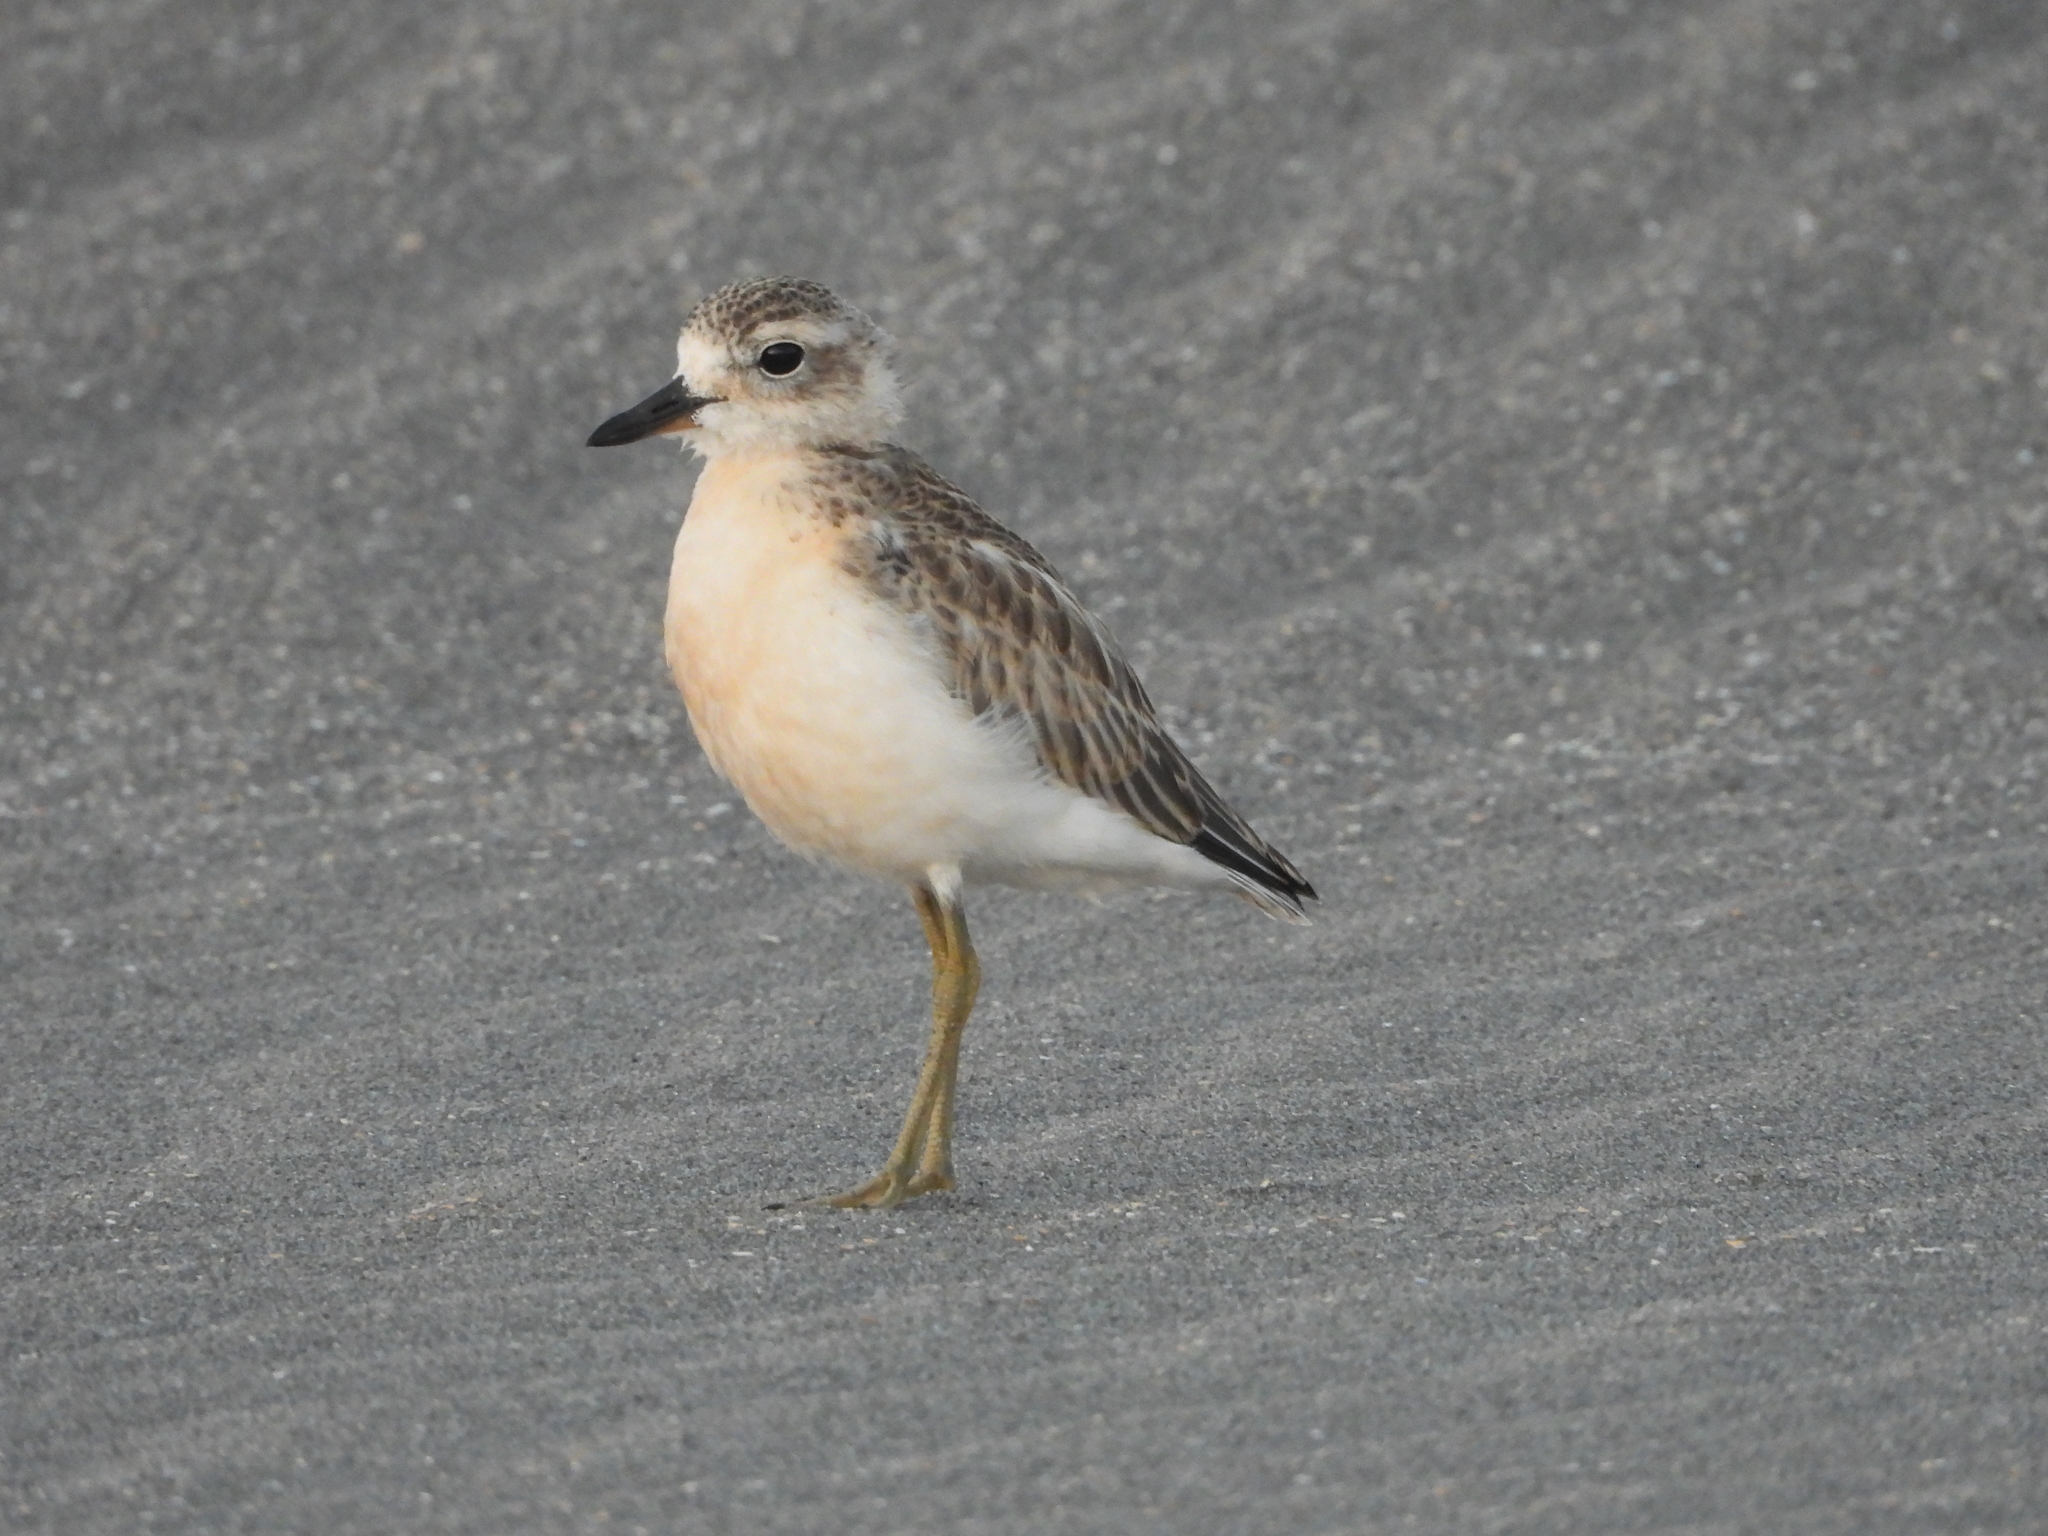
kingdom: Animalia
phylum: Chordata
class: Aves
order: Charadriiformes
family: Charadriidae
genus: Anarhynchus
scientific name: Anarhynchus
